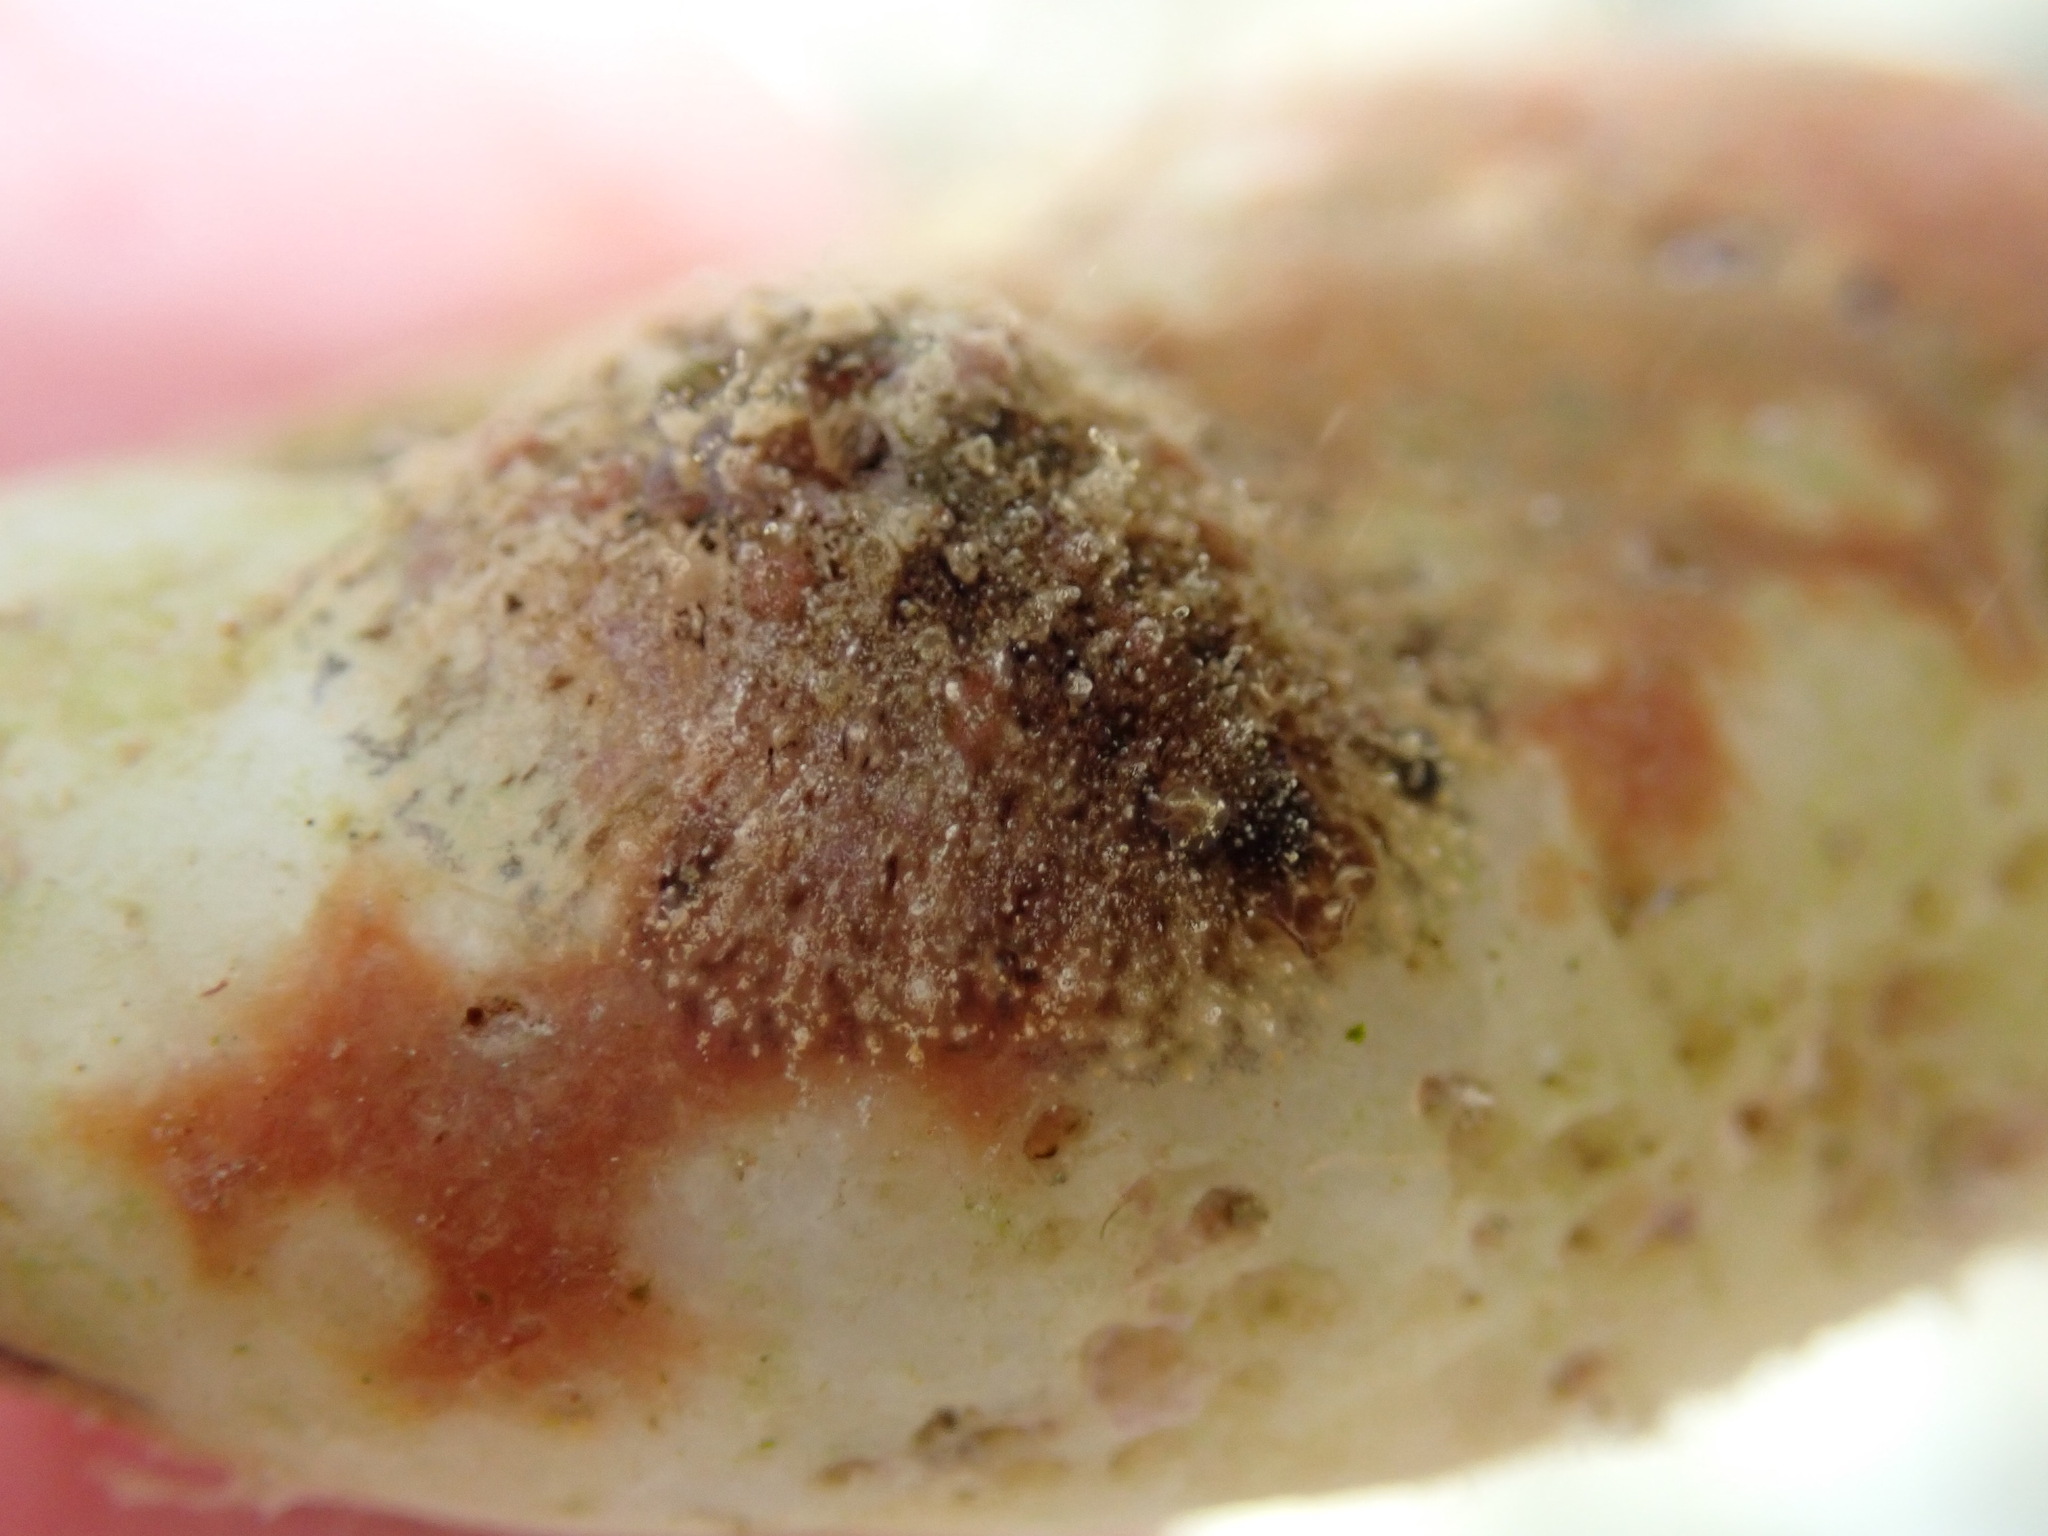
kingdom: Animalia
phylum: Mollusca
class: Gastropoda
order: Aplysiida
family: Aplysiidae
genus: Dolabrifera
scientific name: Dolabrifera dolabrifera
